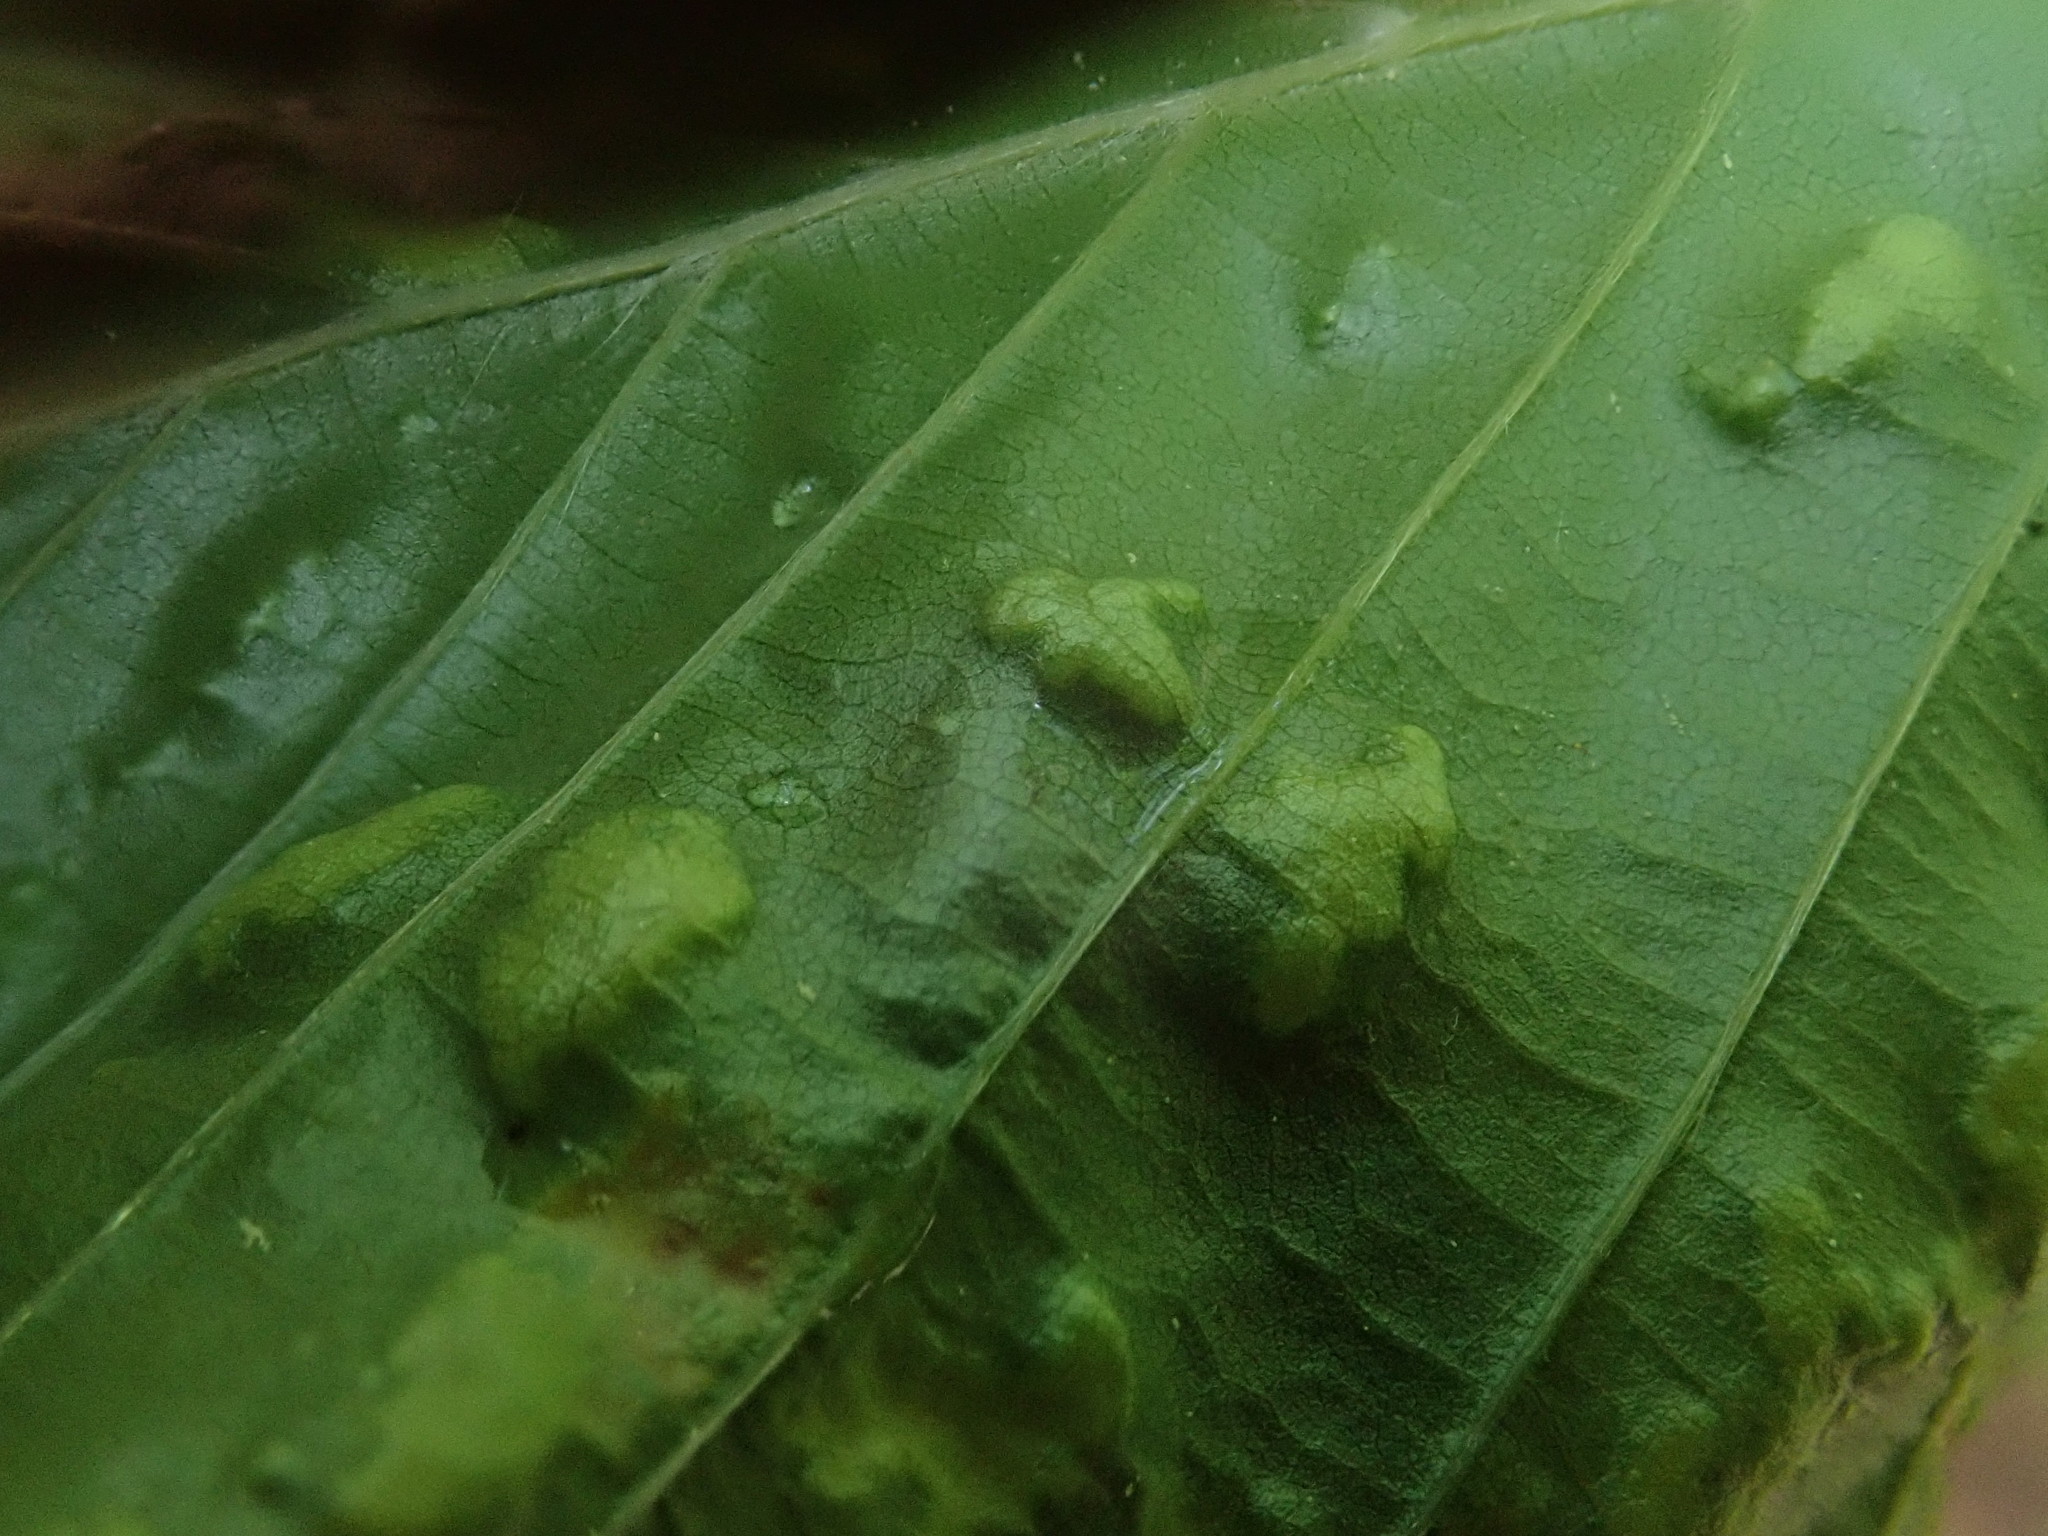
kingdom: Animalia
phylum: Arthropoda
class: Arachnida
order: Trombidiformes
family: Eriophyidae
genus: Acalitus
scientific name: Acalitus
